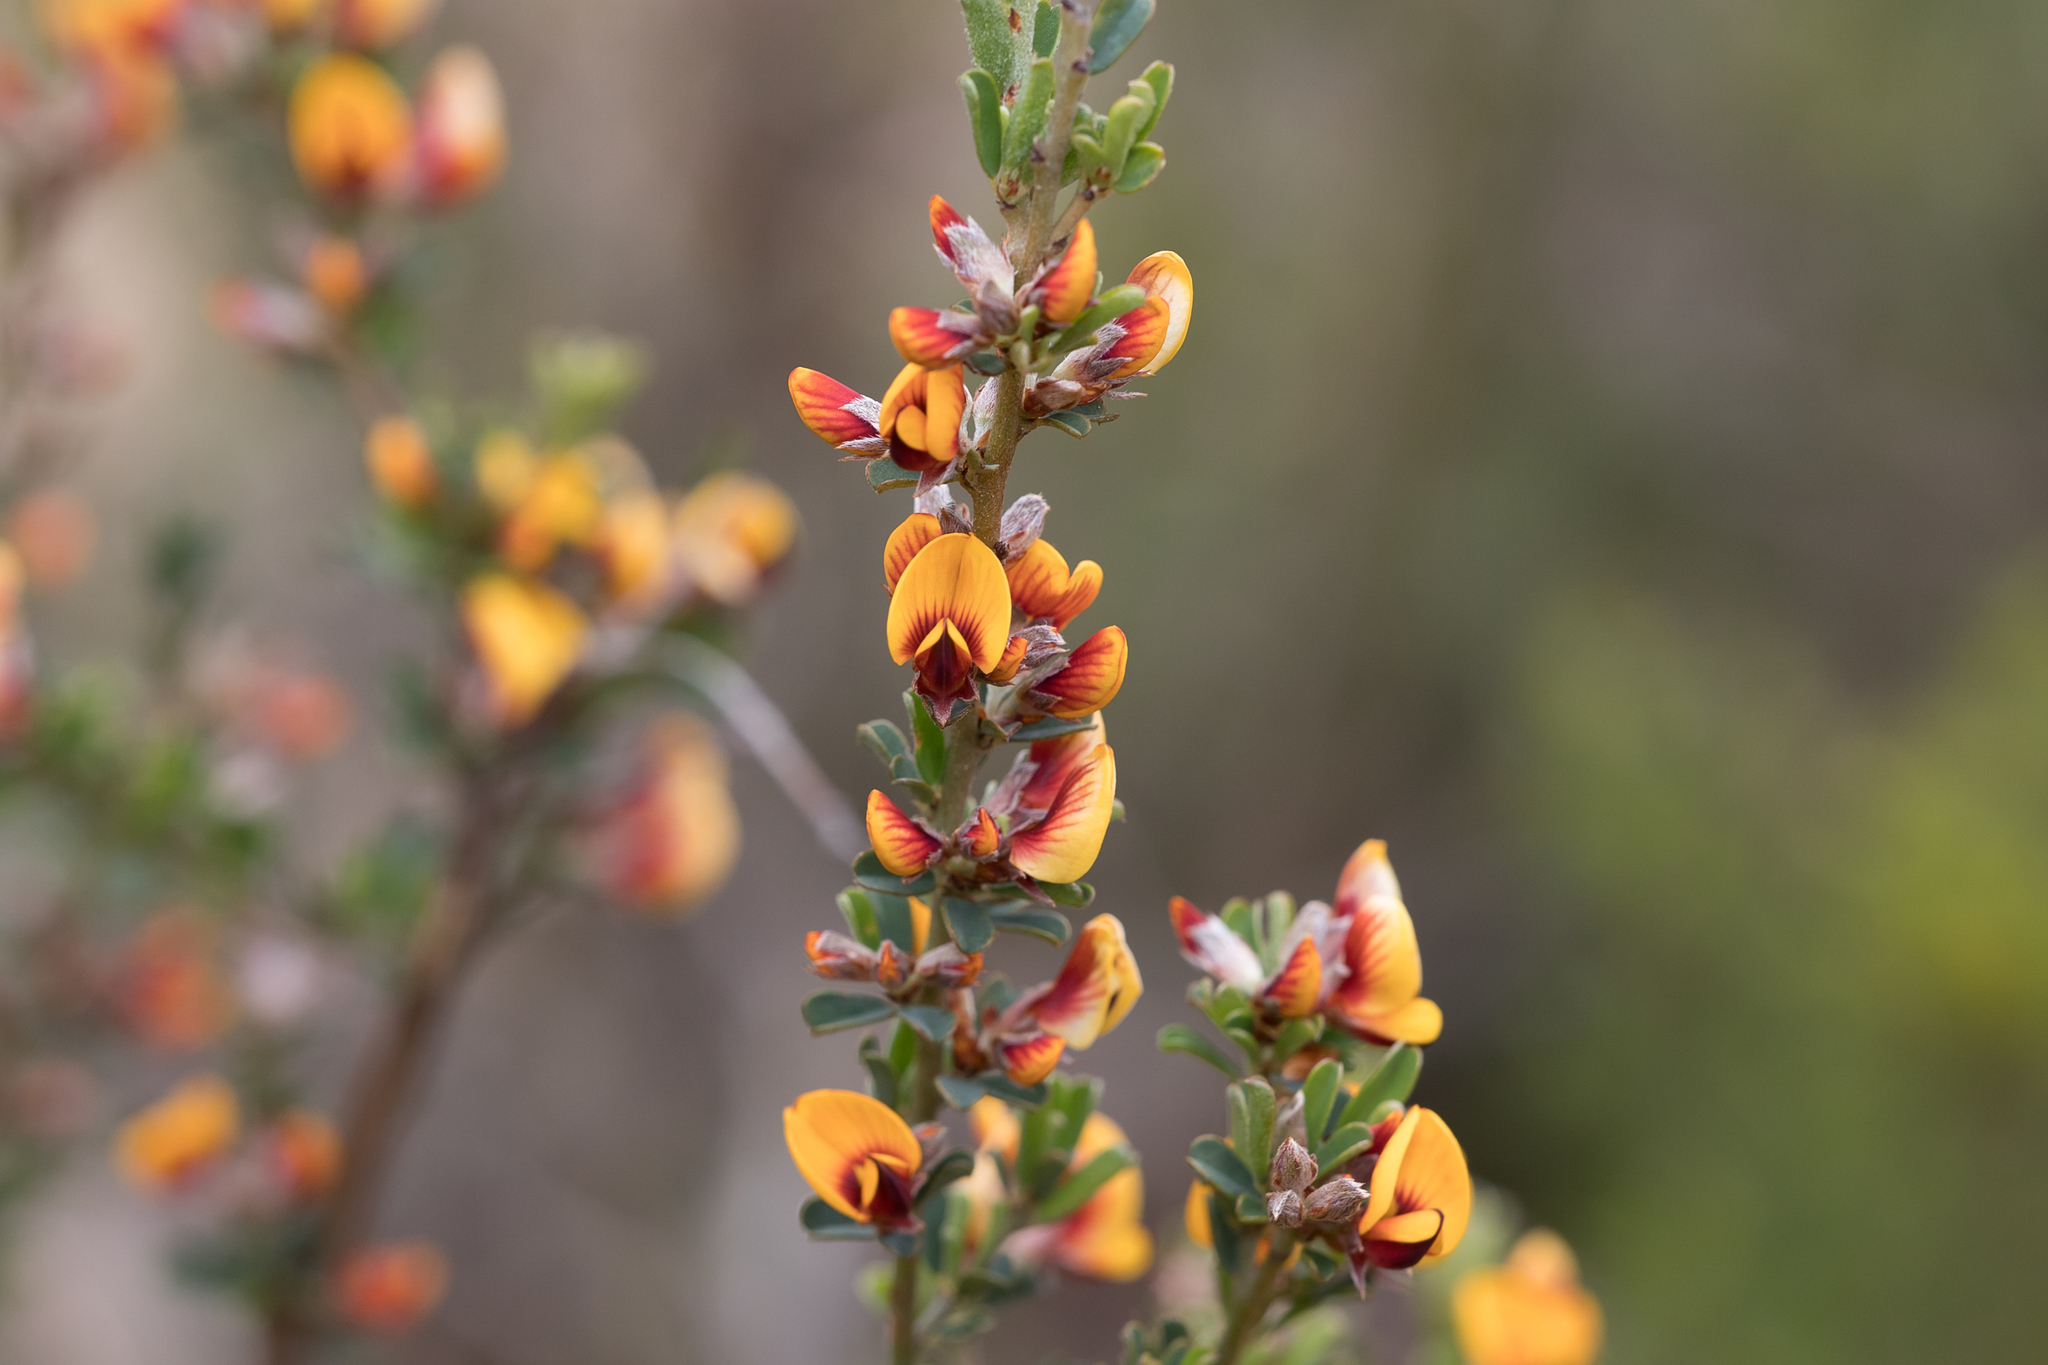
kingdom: Plantae
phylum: Tracheophyta
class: Magnoliopsida
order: Fabales
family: Fabaceae
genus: Pultenaea
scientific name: Pultenaea largiflorens
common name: Twiggy bush-pea
